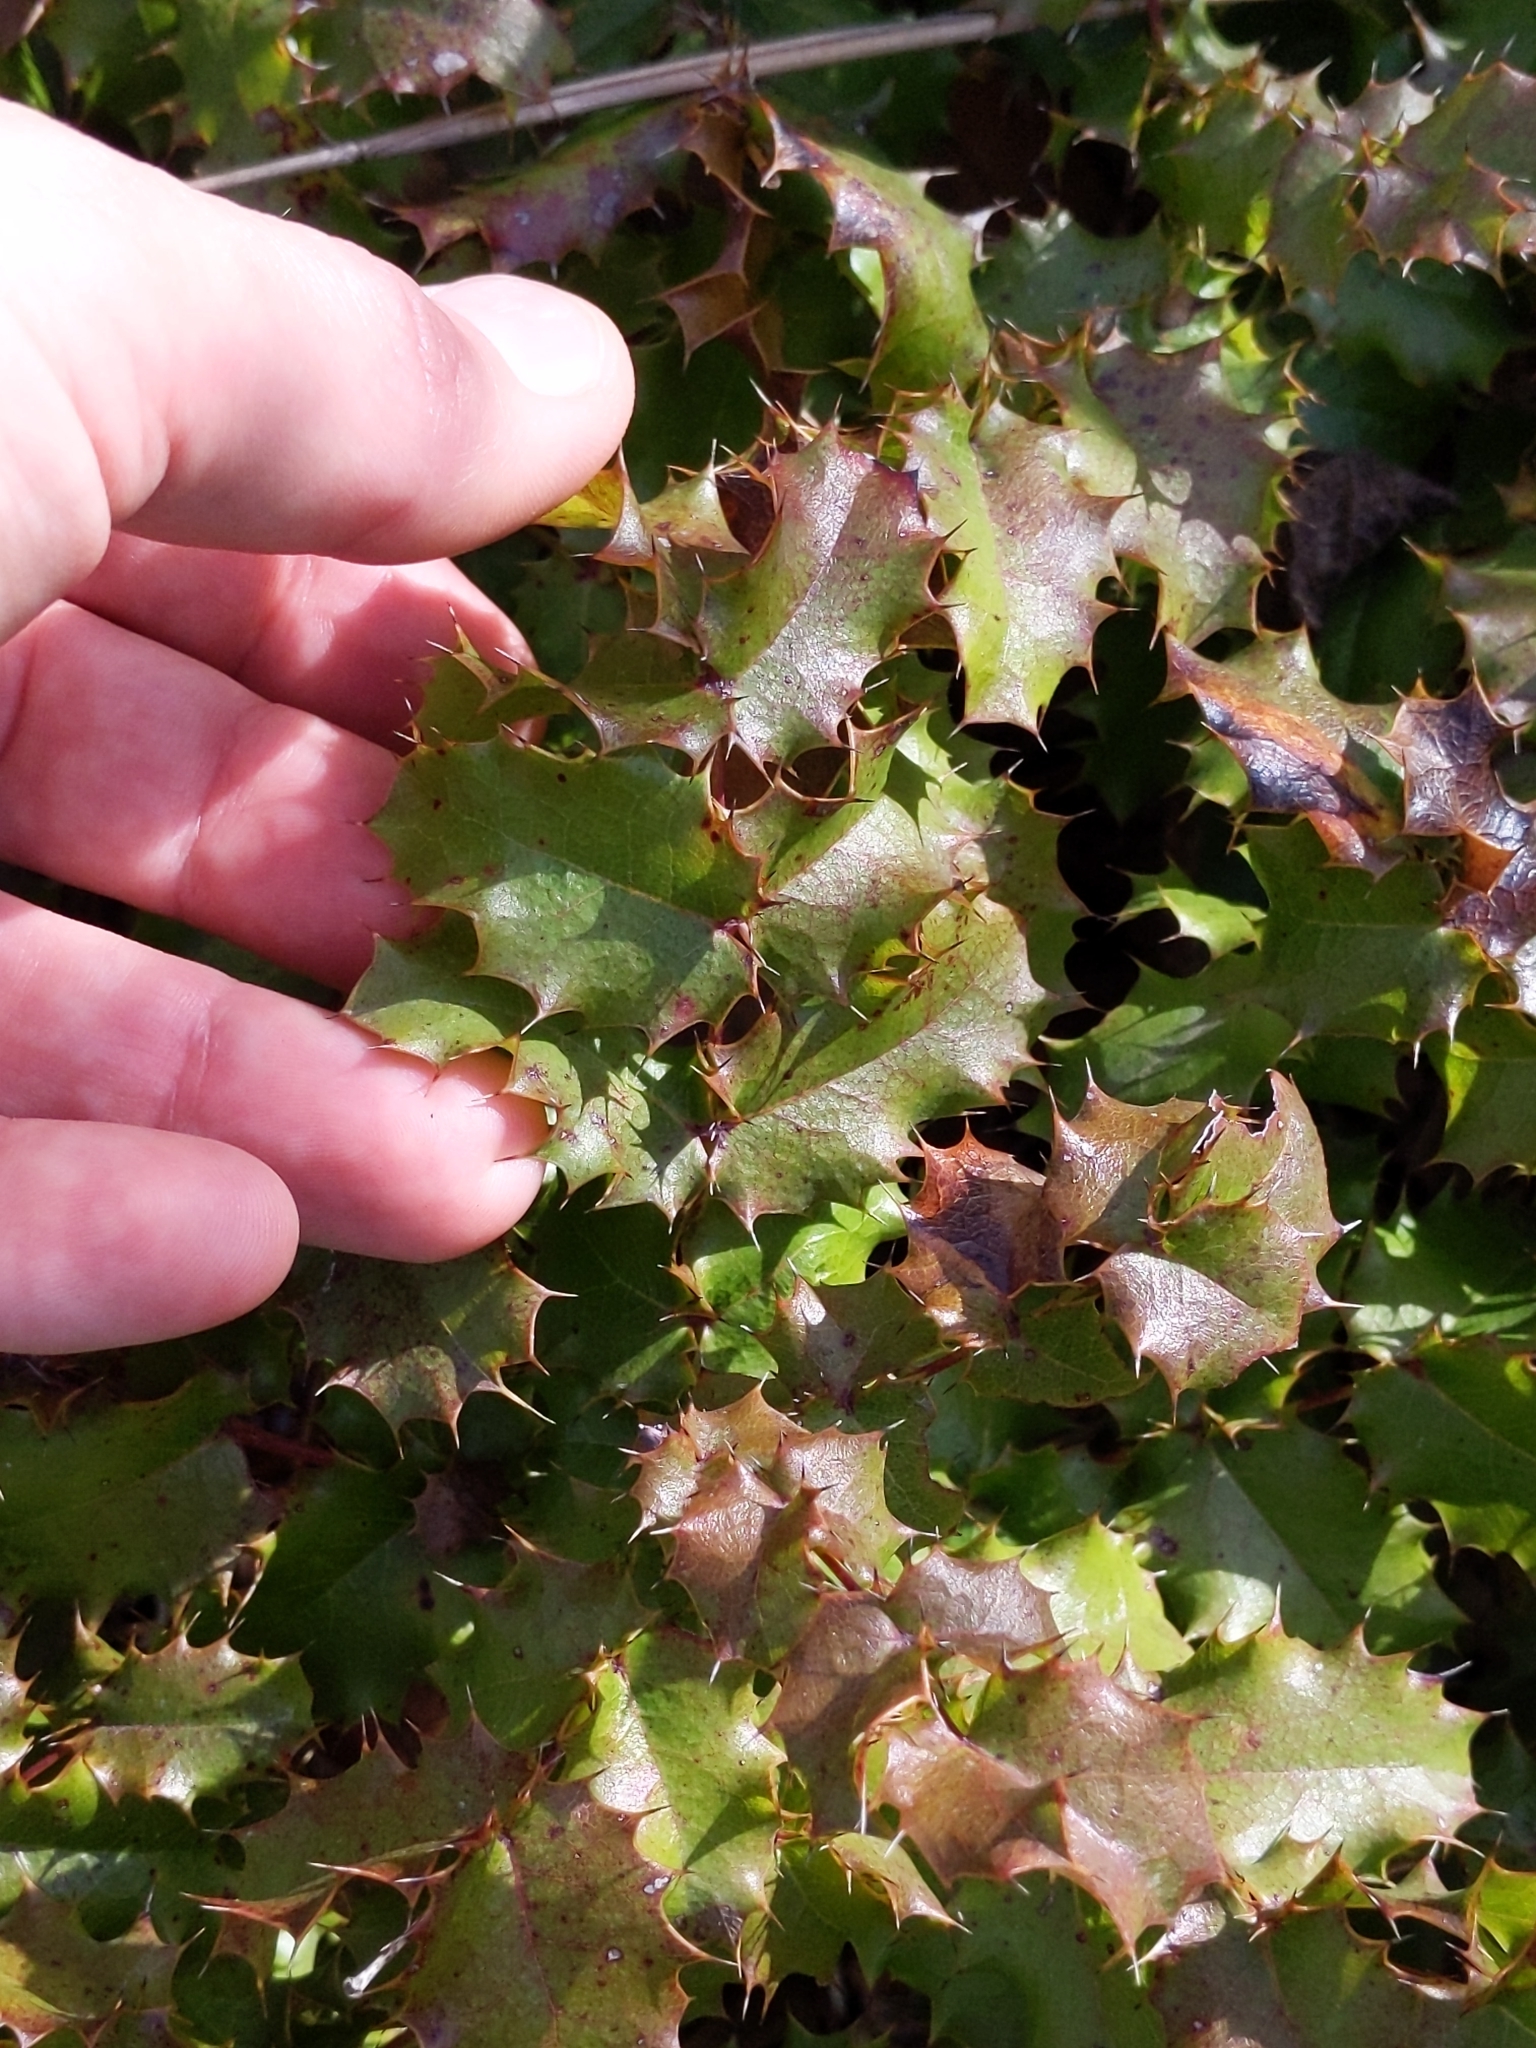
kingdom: Plantae
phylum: Tracheophyta
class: Magnoliopsida
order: Ranunculales
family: Berberidaceae
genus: Mahonia
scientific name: Mahonia
